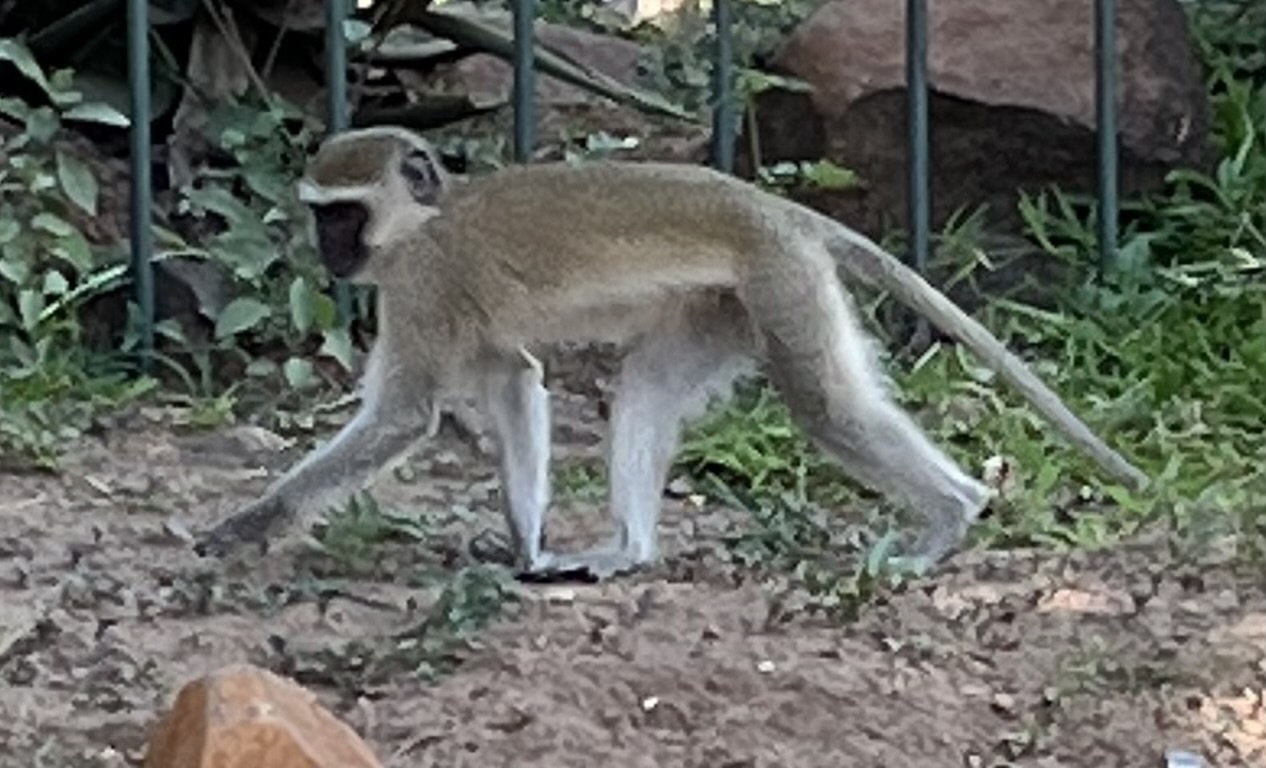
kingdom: Animalia
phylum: Chordata
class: Mammalia
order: Primates
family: Cercopithecidae
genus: Chlorocebus
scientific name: Chlorocebus pygerythrus
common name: Vervet monkey
